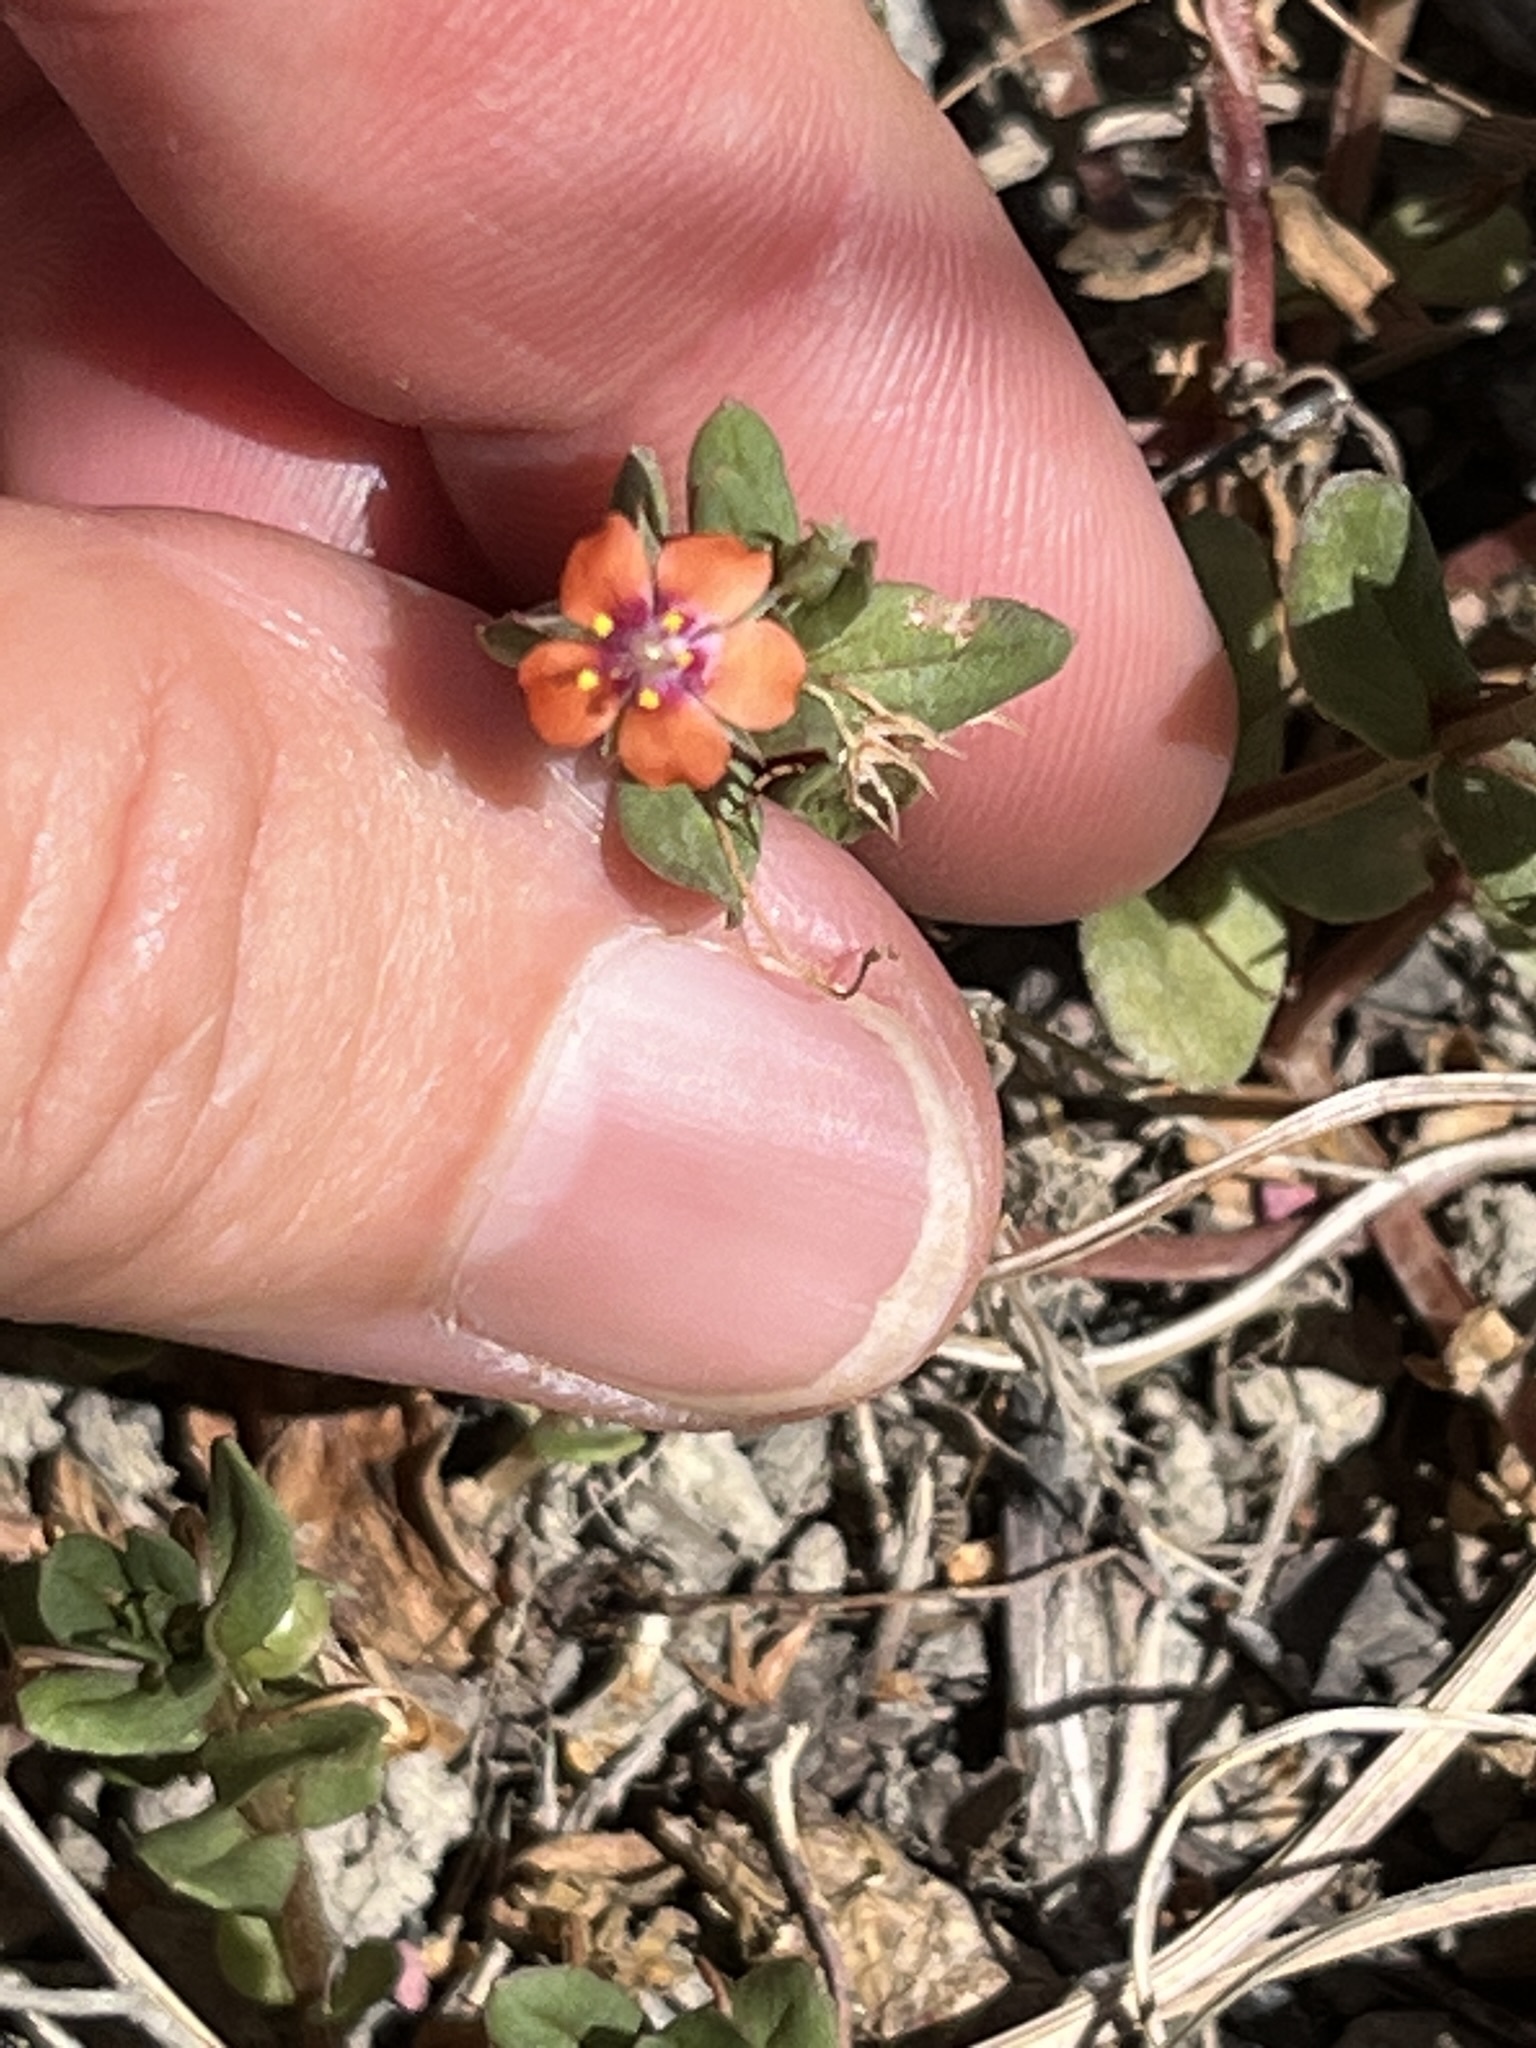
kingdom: Plantae
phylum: Tracheophyta
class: Magnoliopsida
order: Ericales
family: Primulaceae
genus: Lysimachia
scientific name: Lysimachia arvensis
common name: Scarlet pimpernel
